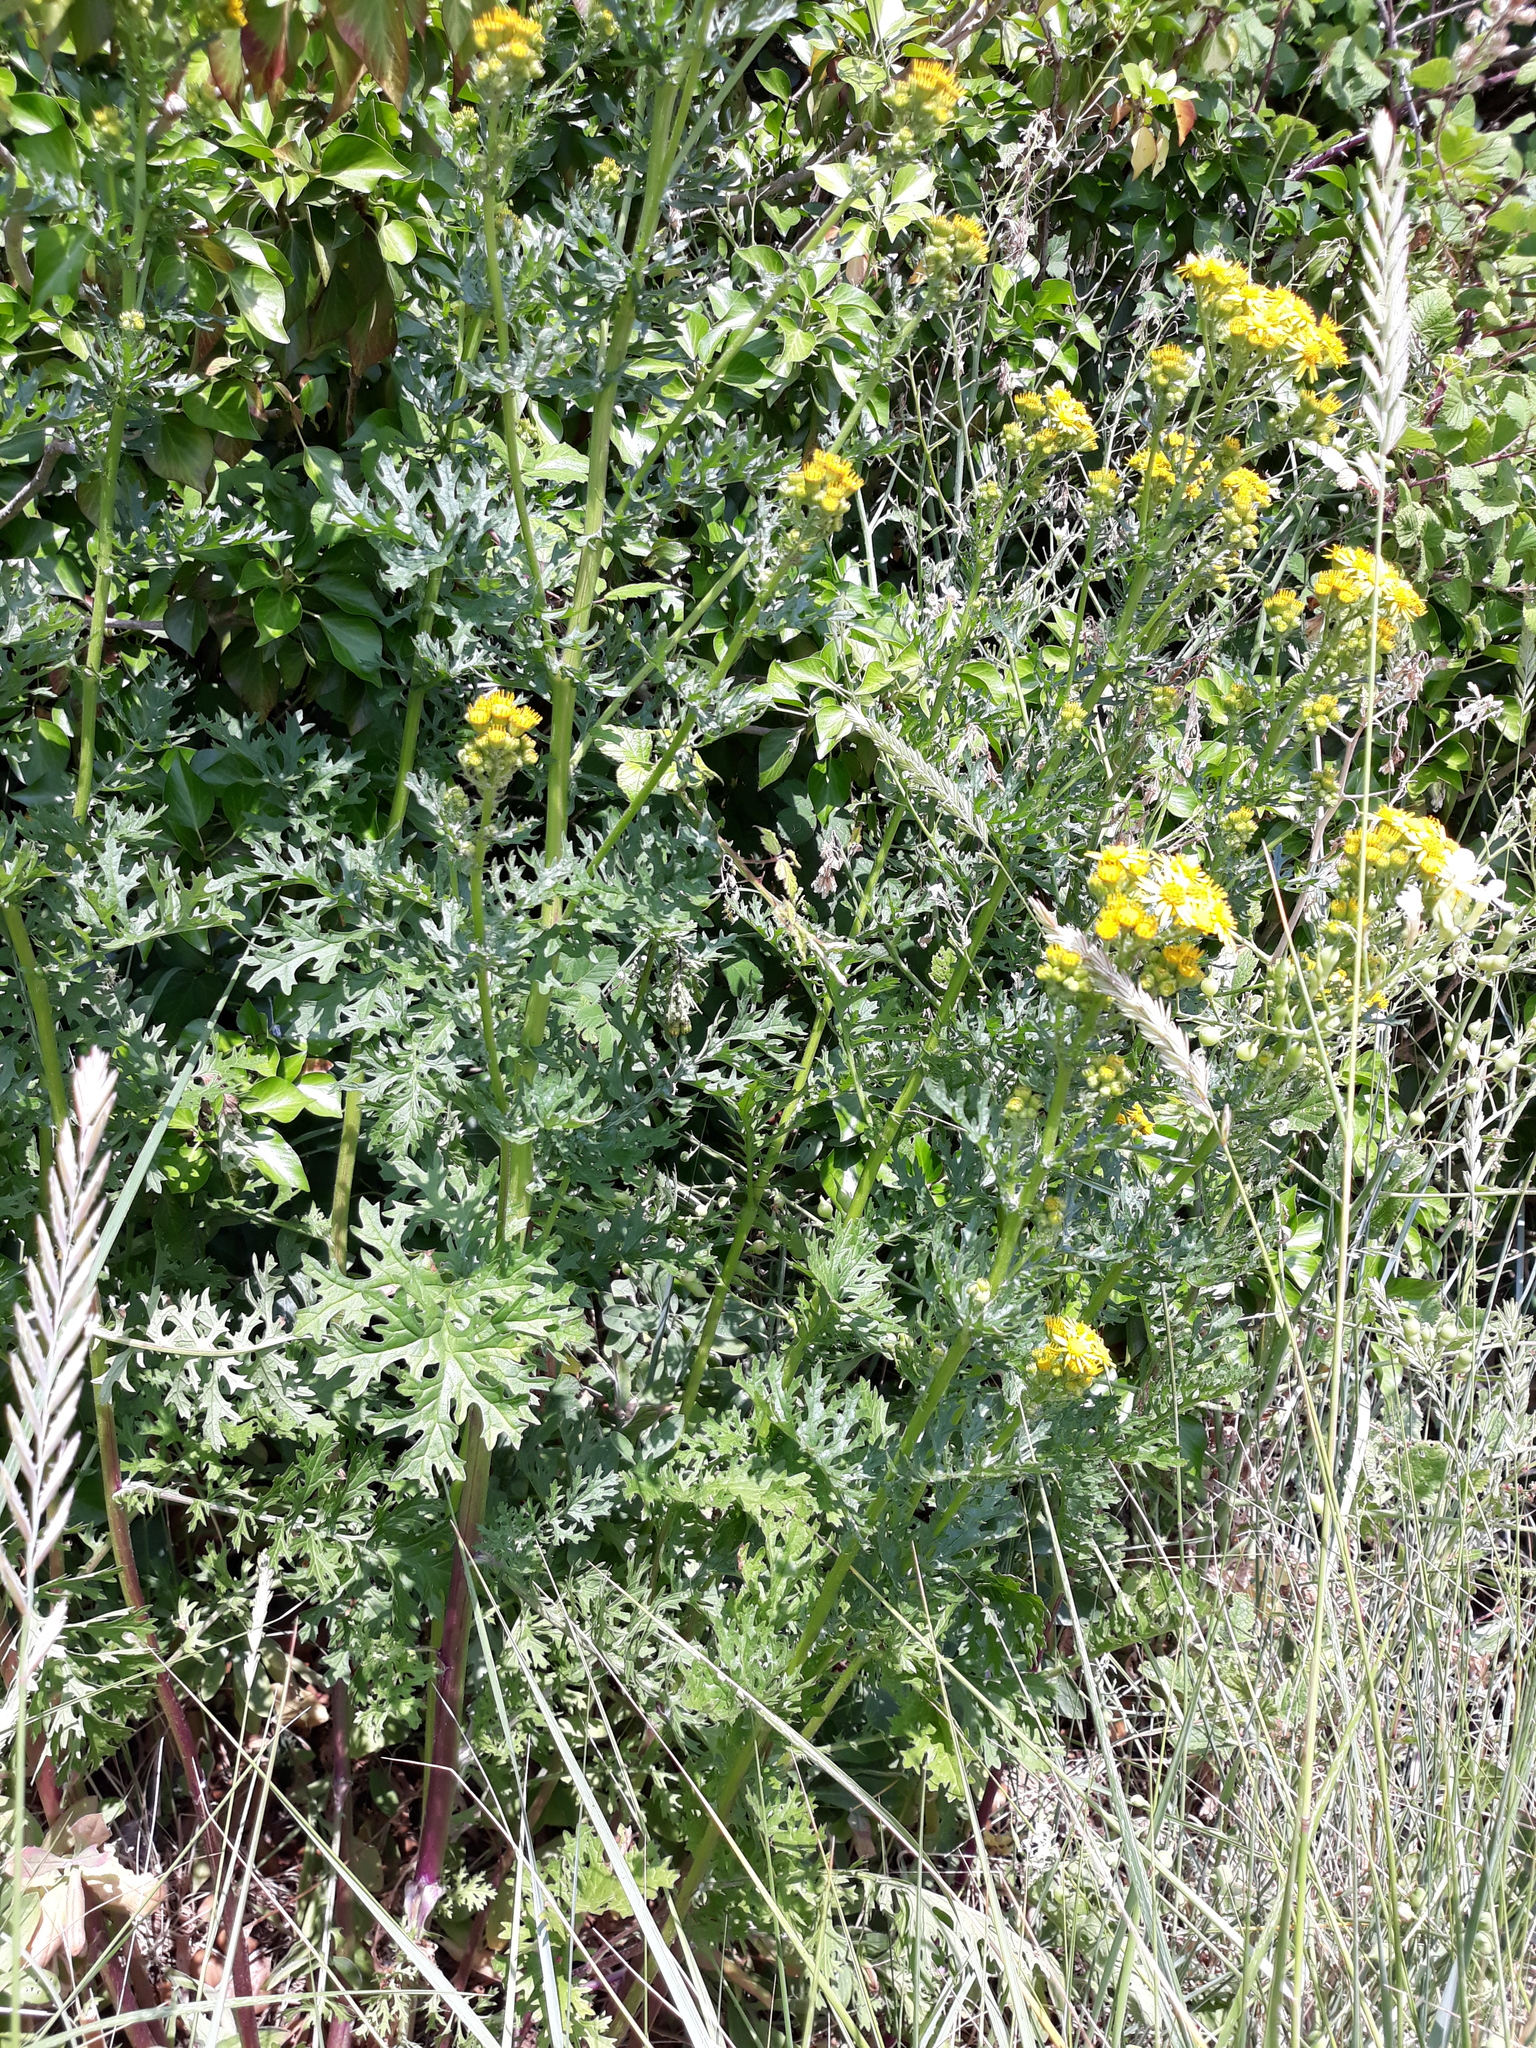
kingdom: Plantae
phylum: Tracheophyta
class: Magnoliopsida
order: Asterales
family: Asteraceae
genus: Jacobaea
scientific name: Jacobaea vulgaris
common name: Stinking willie
